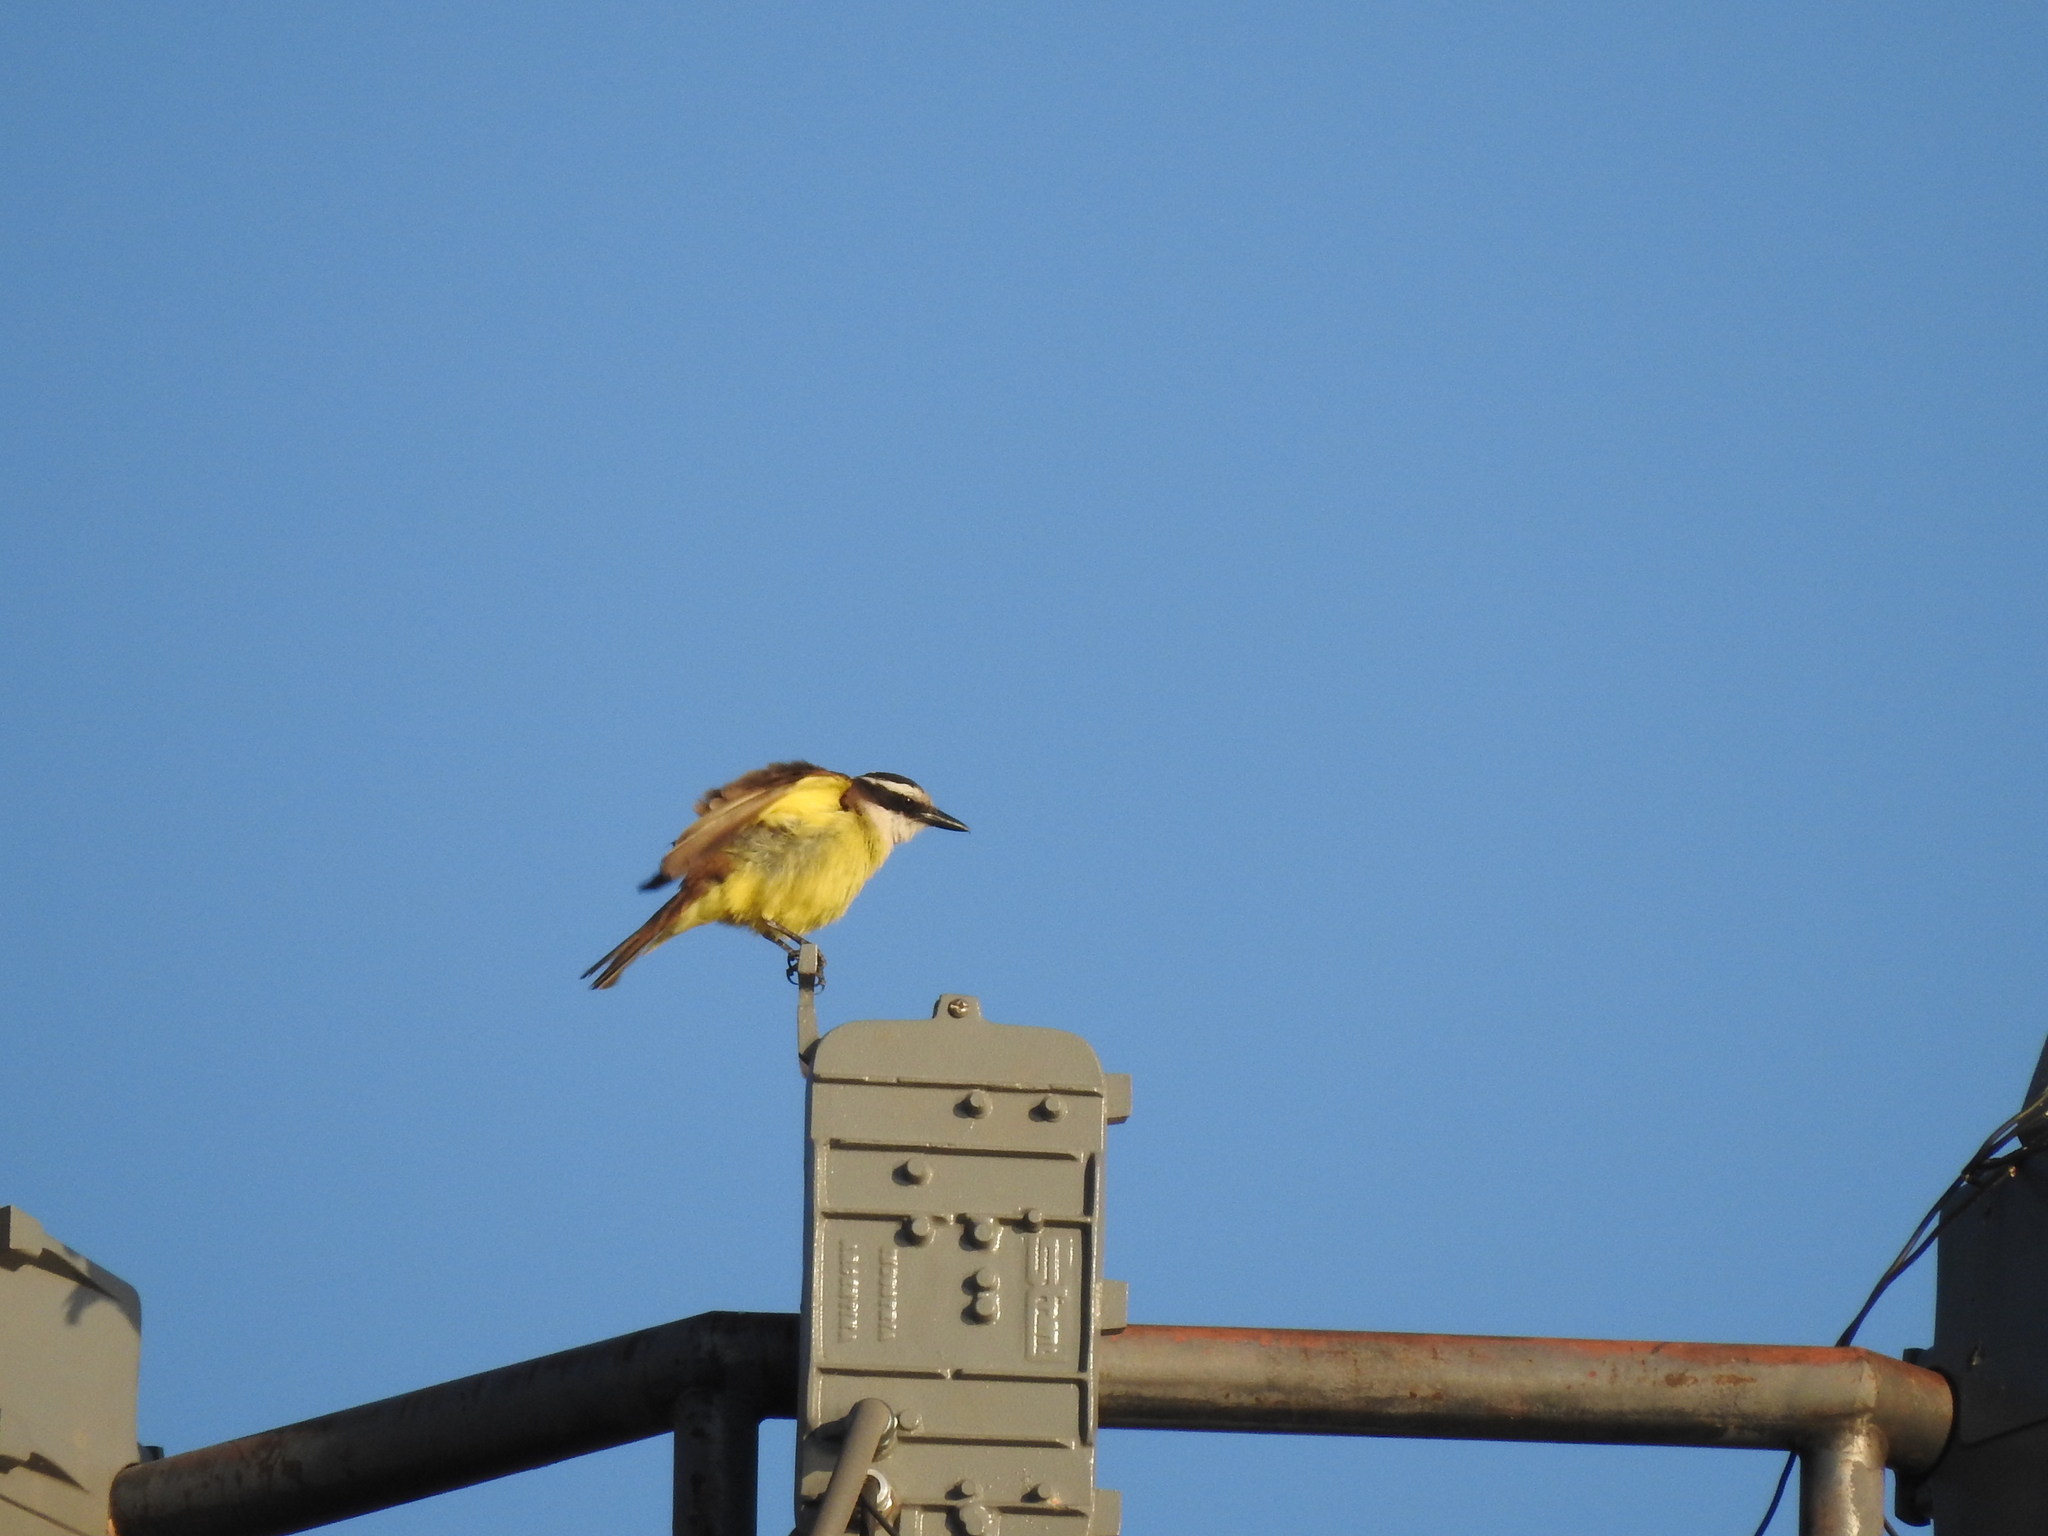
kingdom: Animalia
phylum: Chordata
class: Aves
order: Passeriformes
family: Tyrannidae
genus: Pitangus
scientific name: Pitangus sulphuratus
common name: Great kiskadee
